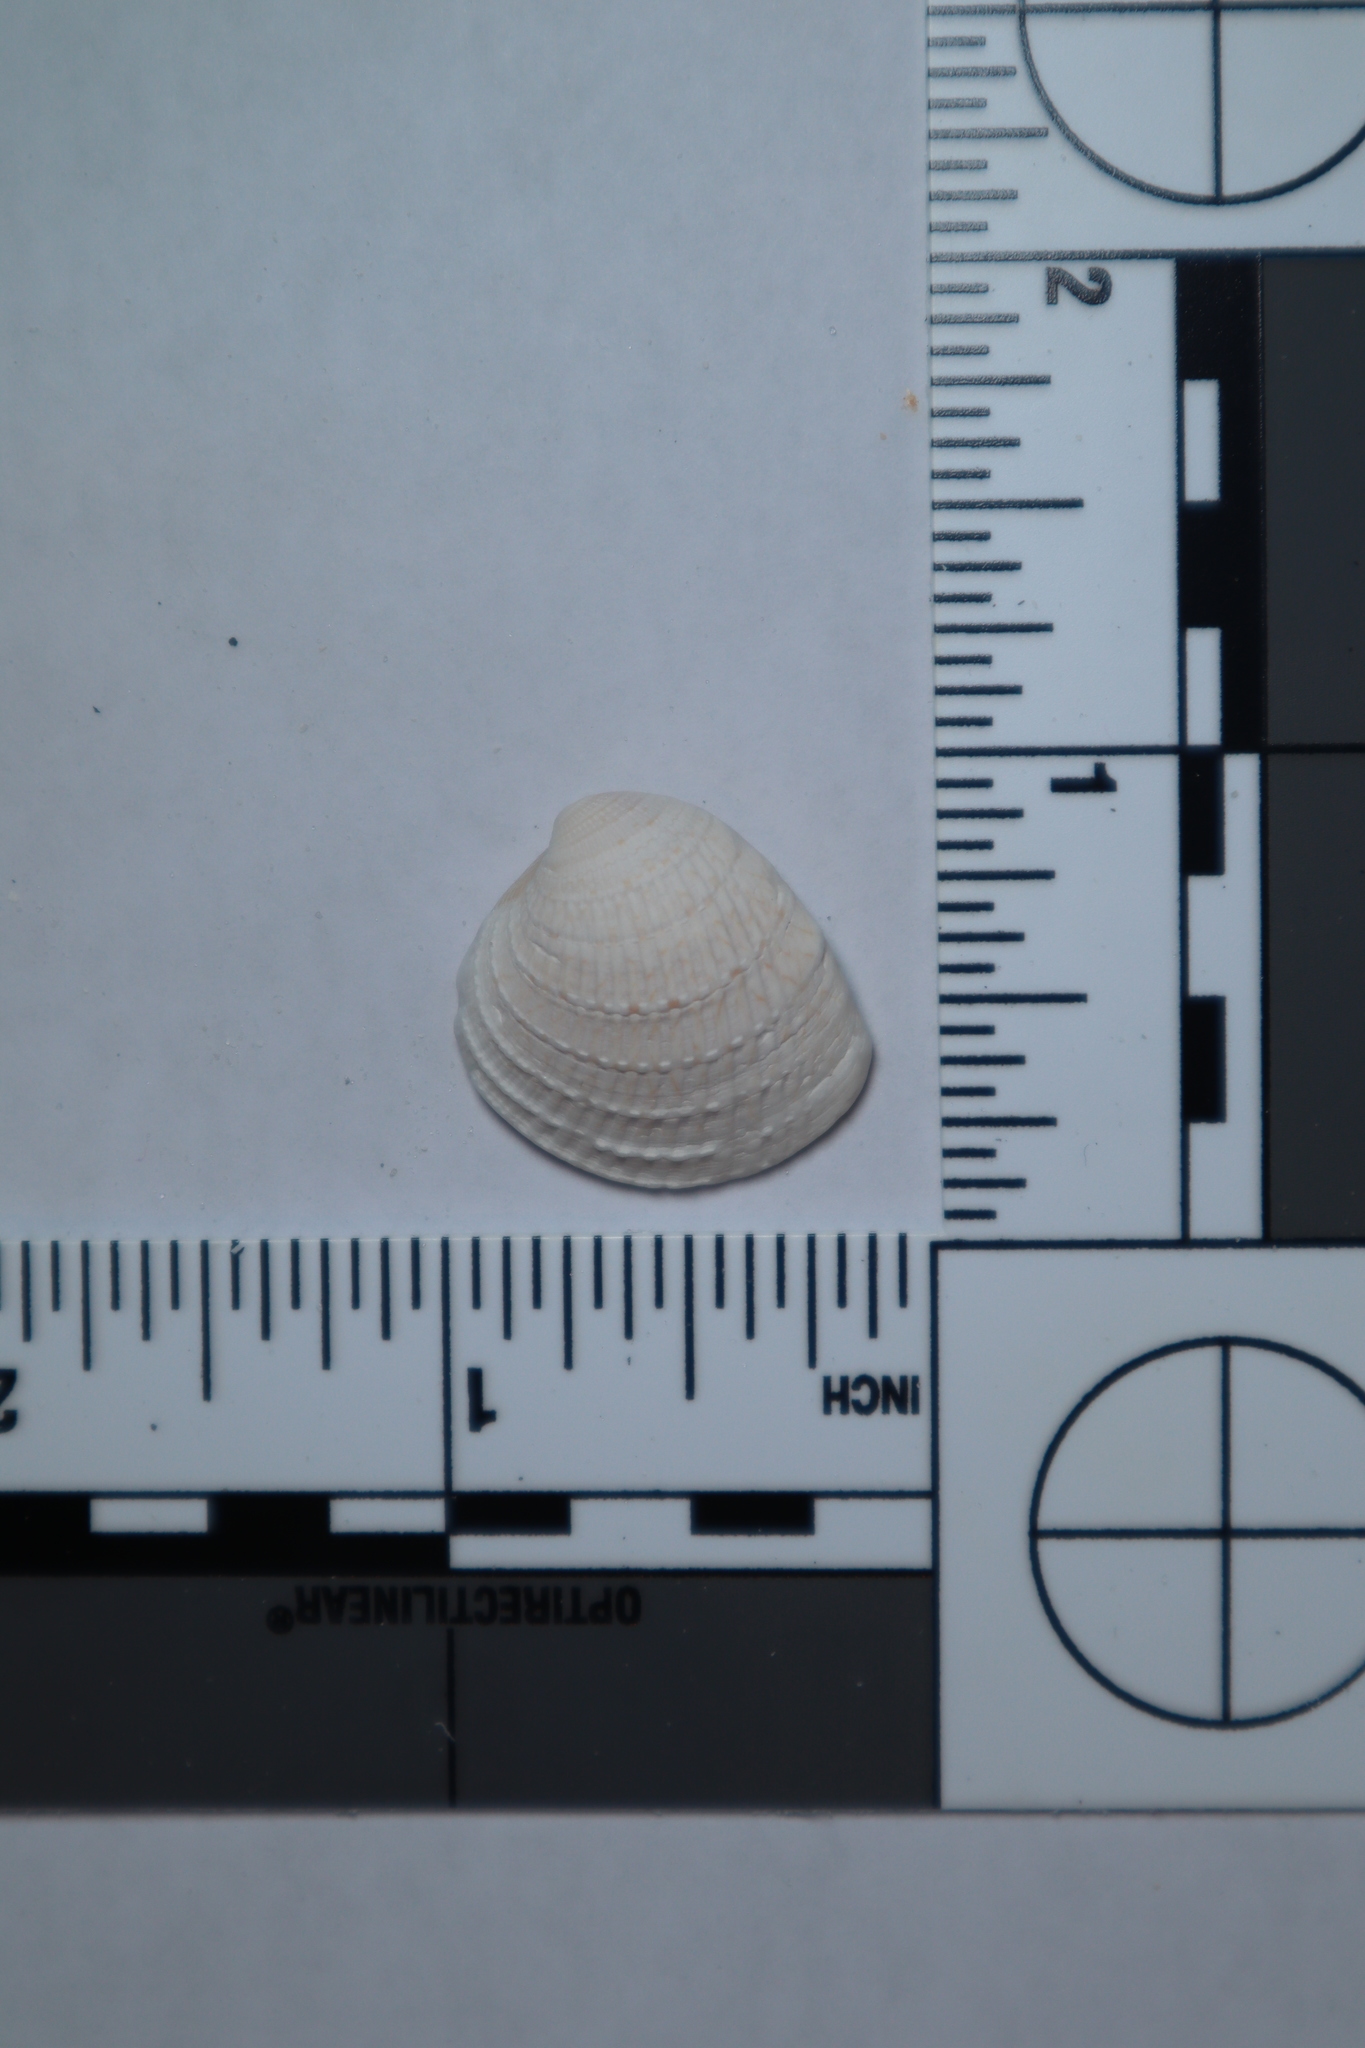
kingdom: Animalia
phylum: Mollusca
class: Bivalvia
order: Venerida
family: Veneridae
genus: Chione
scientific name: Chione elevata
